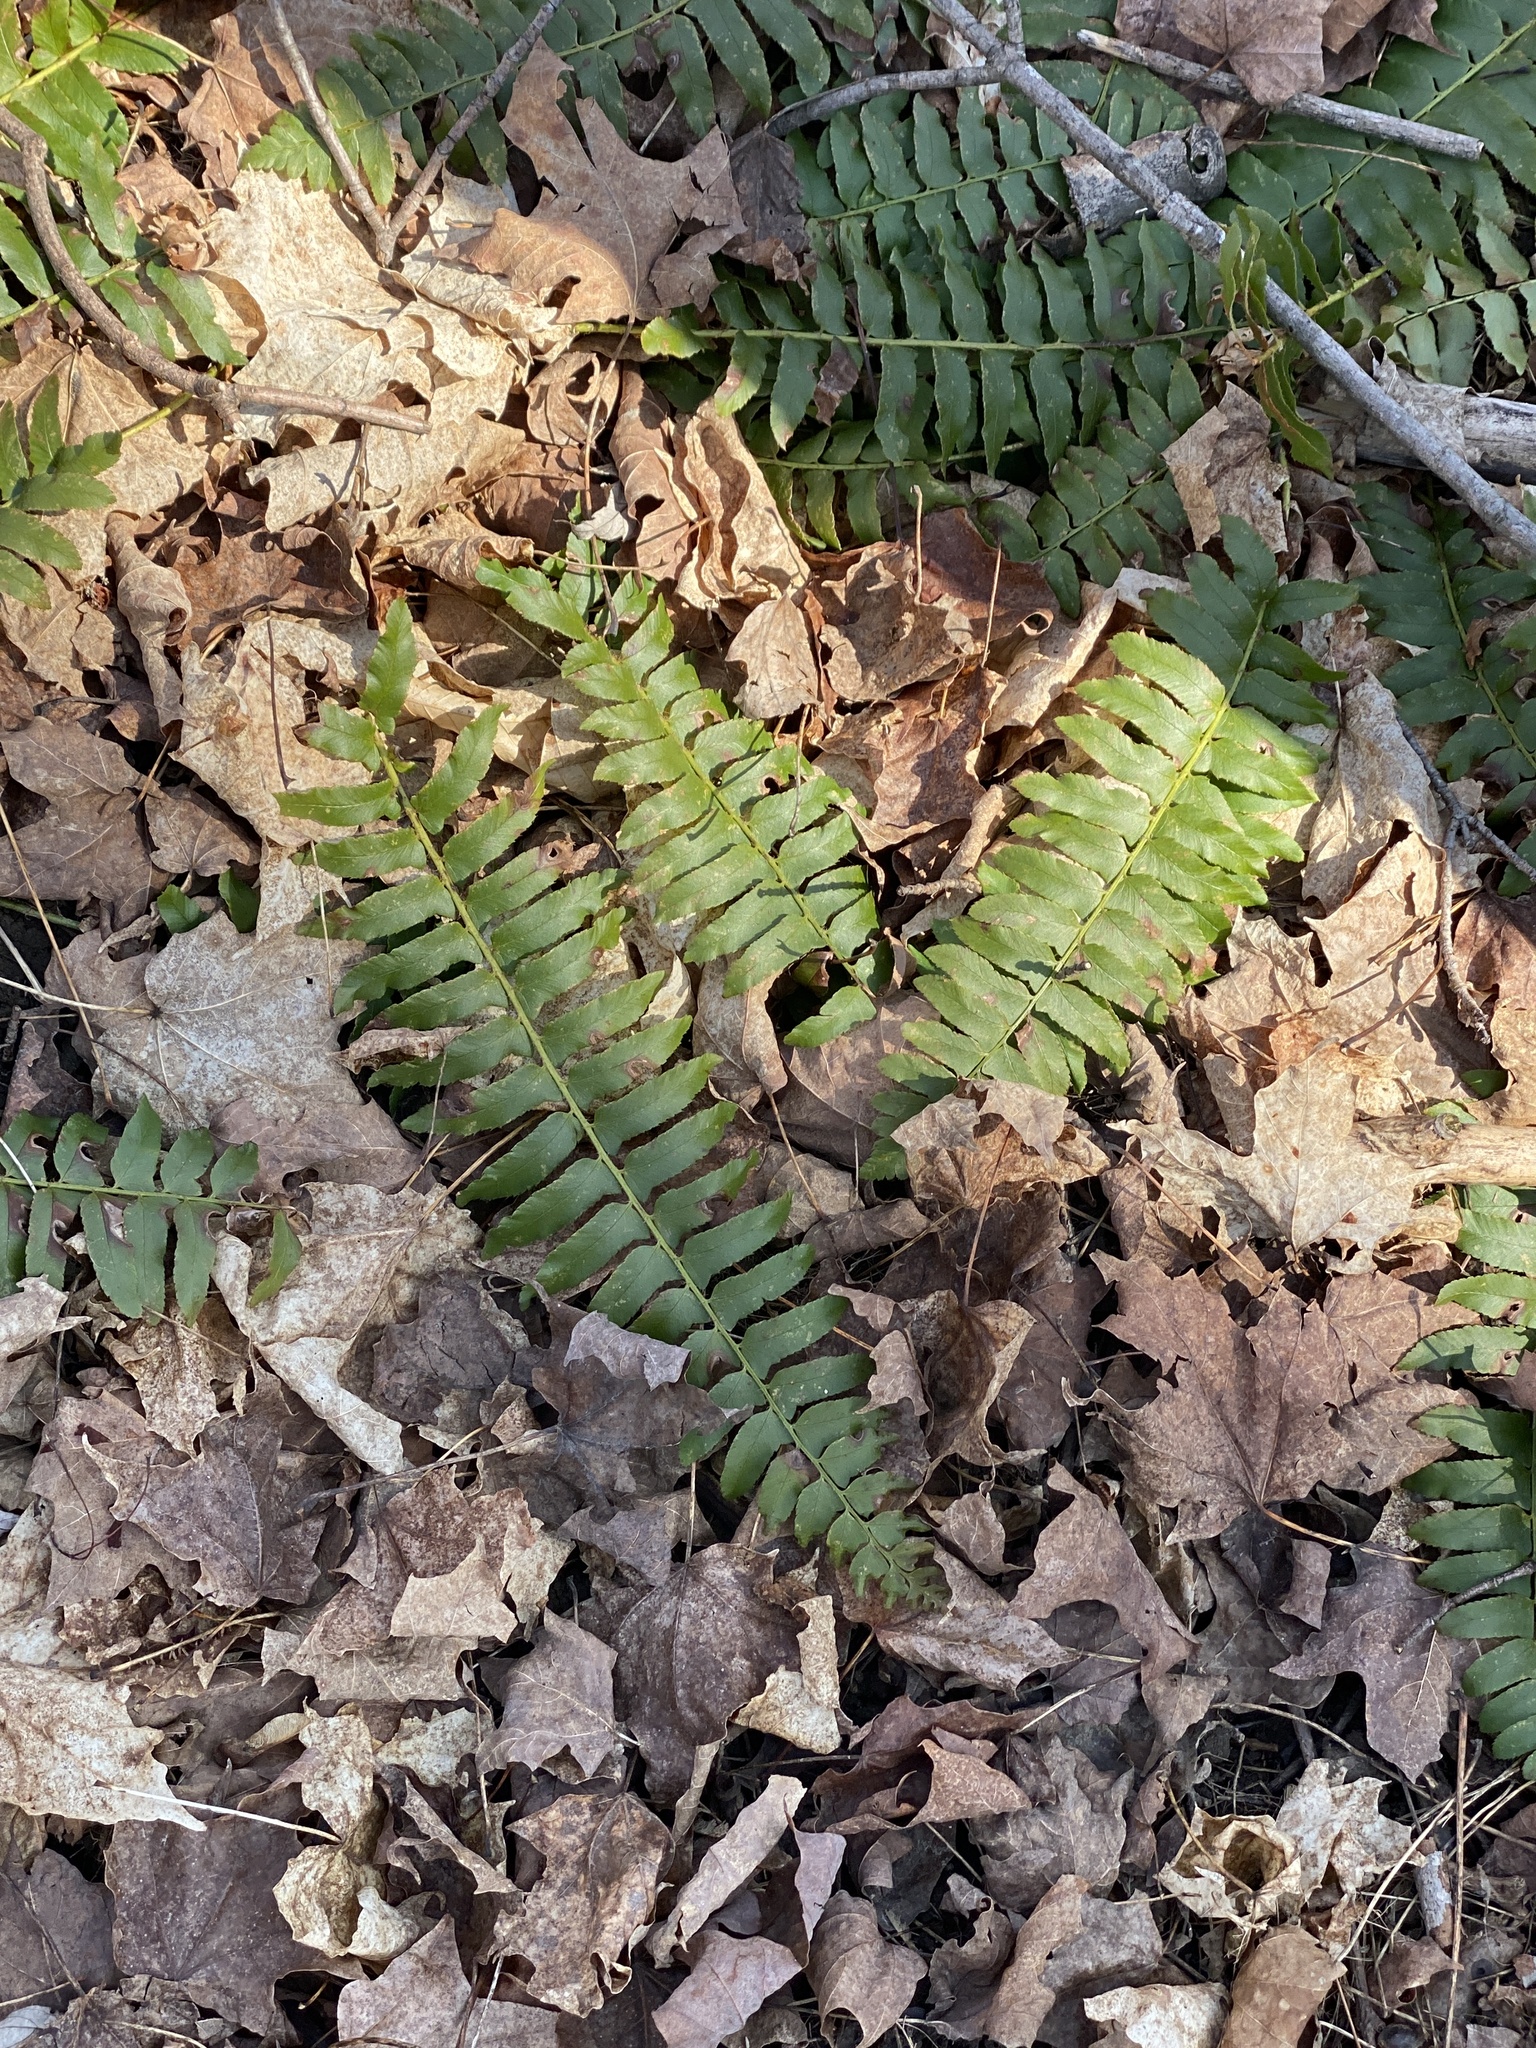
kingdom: Plantae
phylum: Tracheophyta
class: Polypodiopsida
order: Polypodiales
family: Dryopteridaceae
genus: Polystichum
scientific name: Polystichum acrostichoides
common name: Christmas fern
